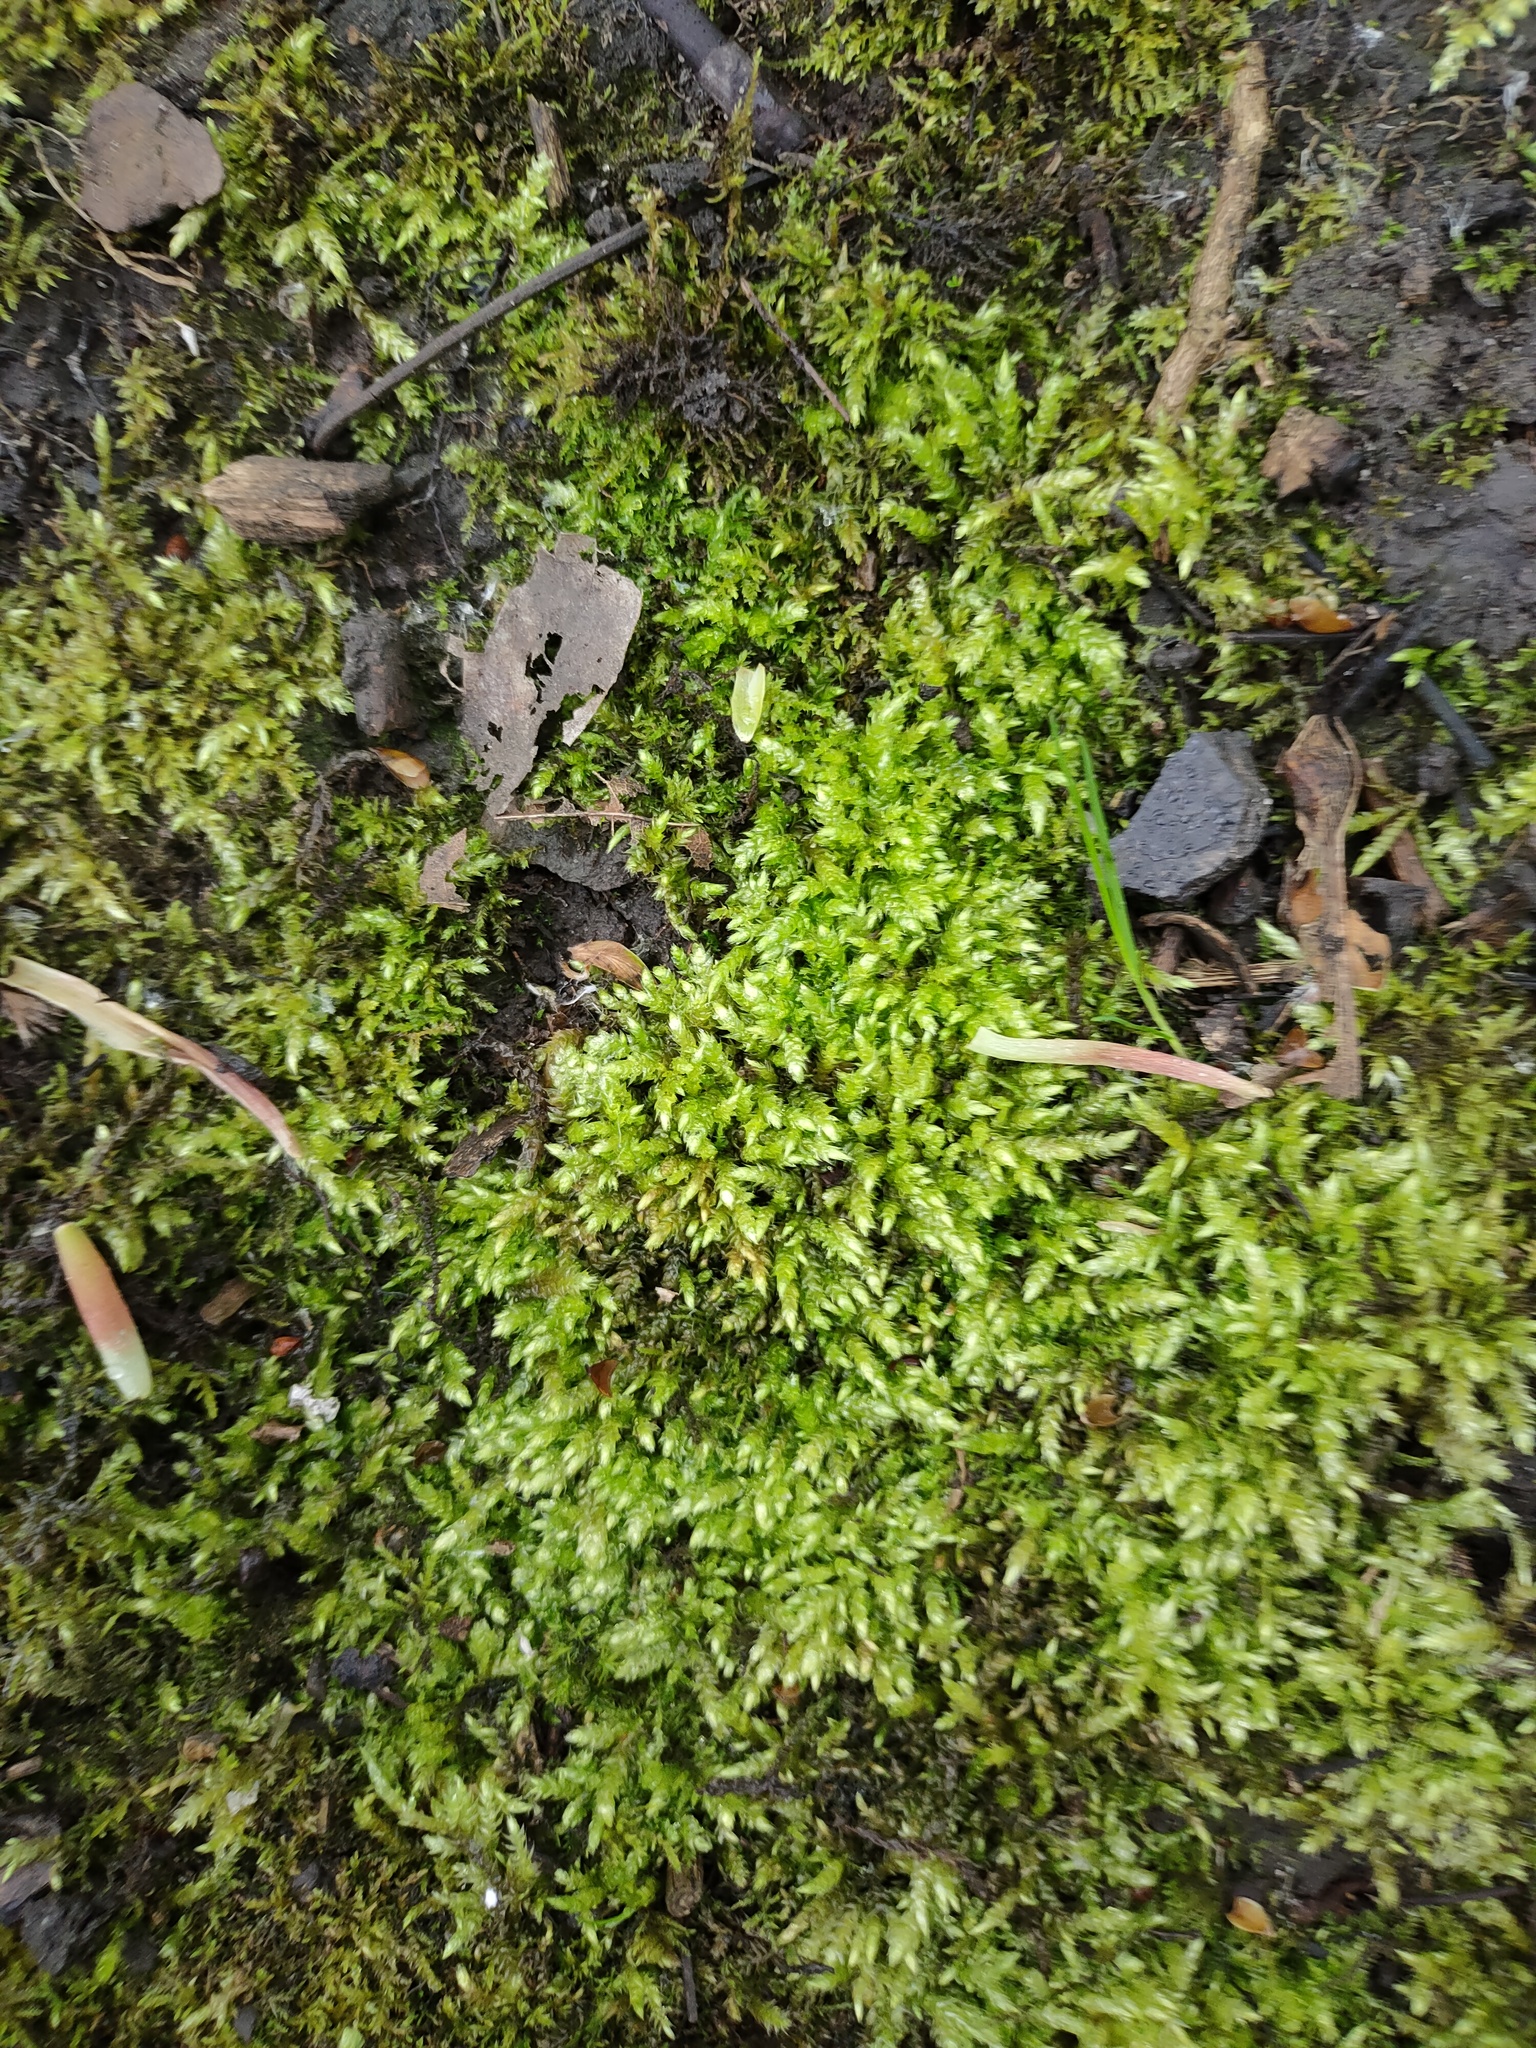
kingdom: Plantae
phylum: Bryophyta
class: Bryopsida
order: Hypnales
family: Brachytheciaceae
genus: Brachythecium
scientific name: Brachythecium rutabulum
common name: Rough-stalked feather-moss
